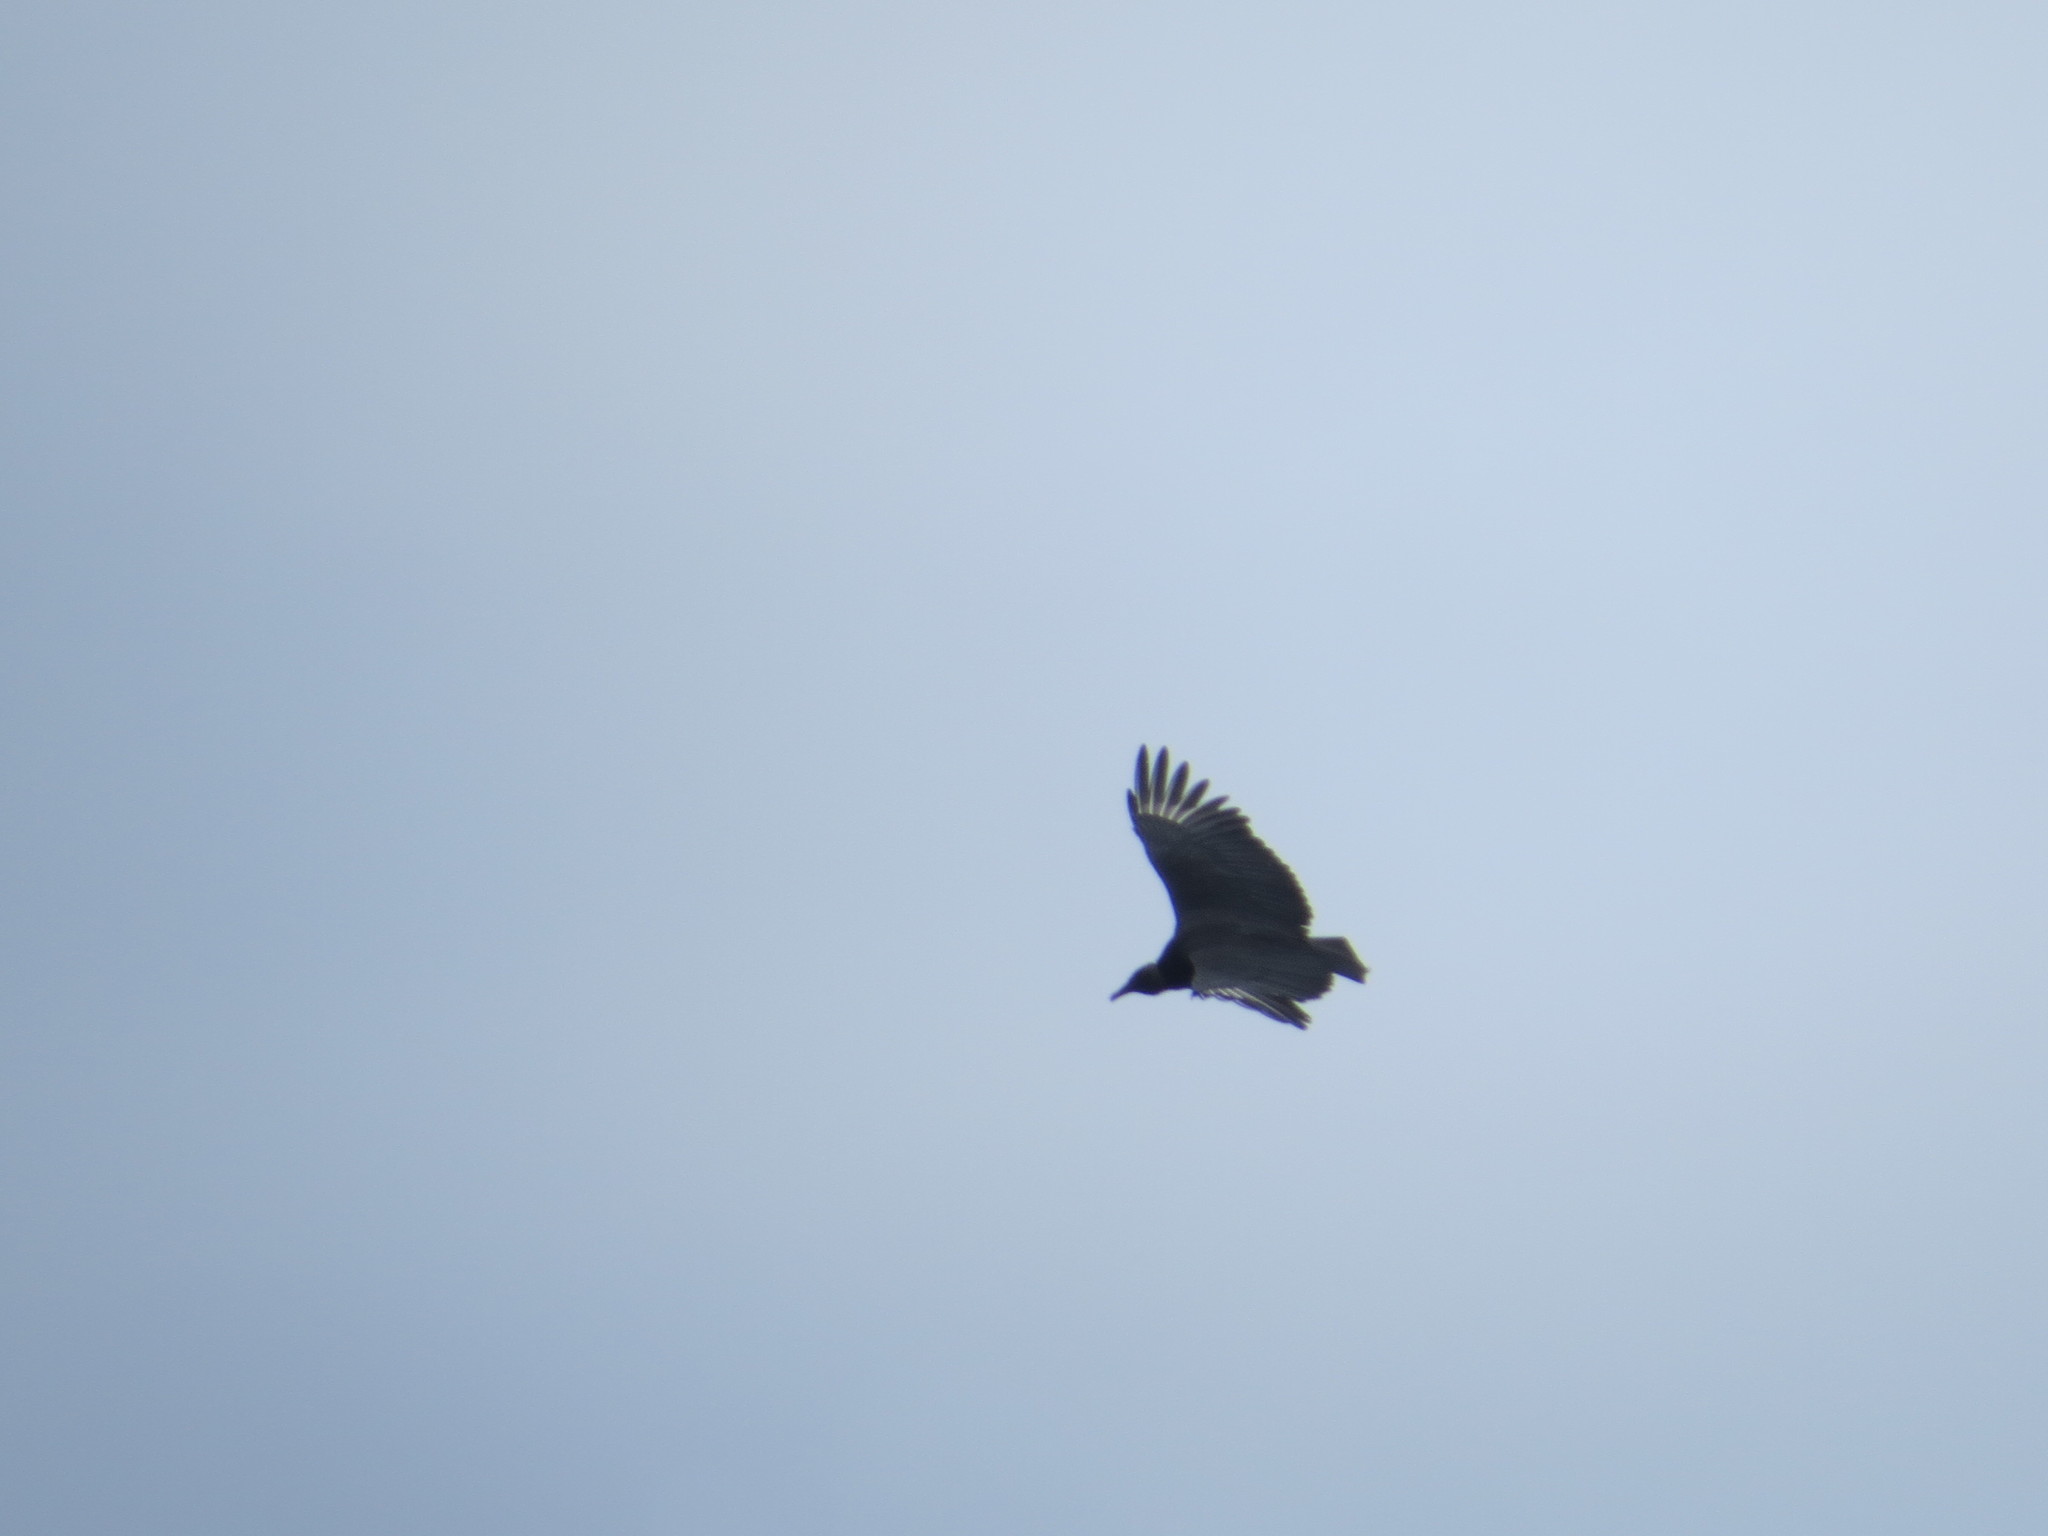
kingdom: Animalia
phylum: Chordata
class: Aves
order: Accipitriformes
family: Cathartidae
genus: Coragyps
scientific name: Coragyps atratus
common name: Black vulture
